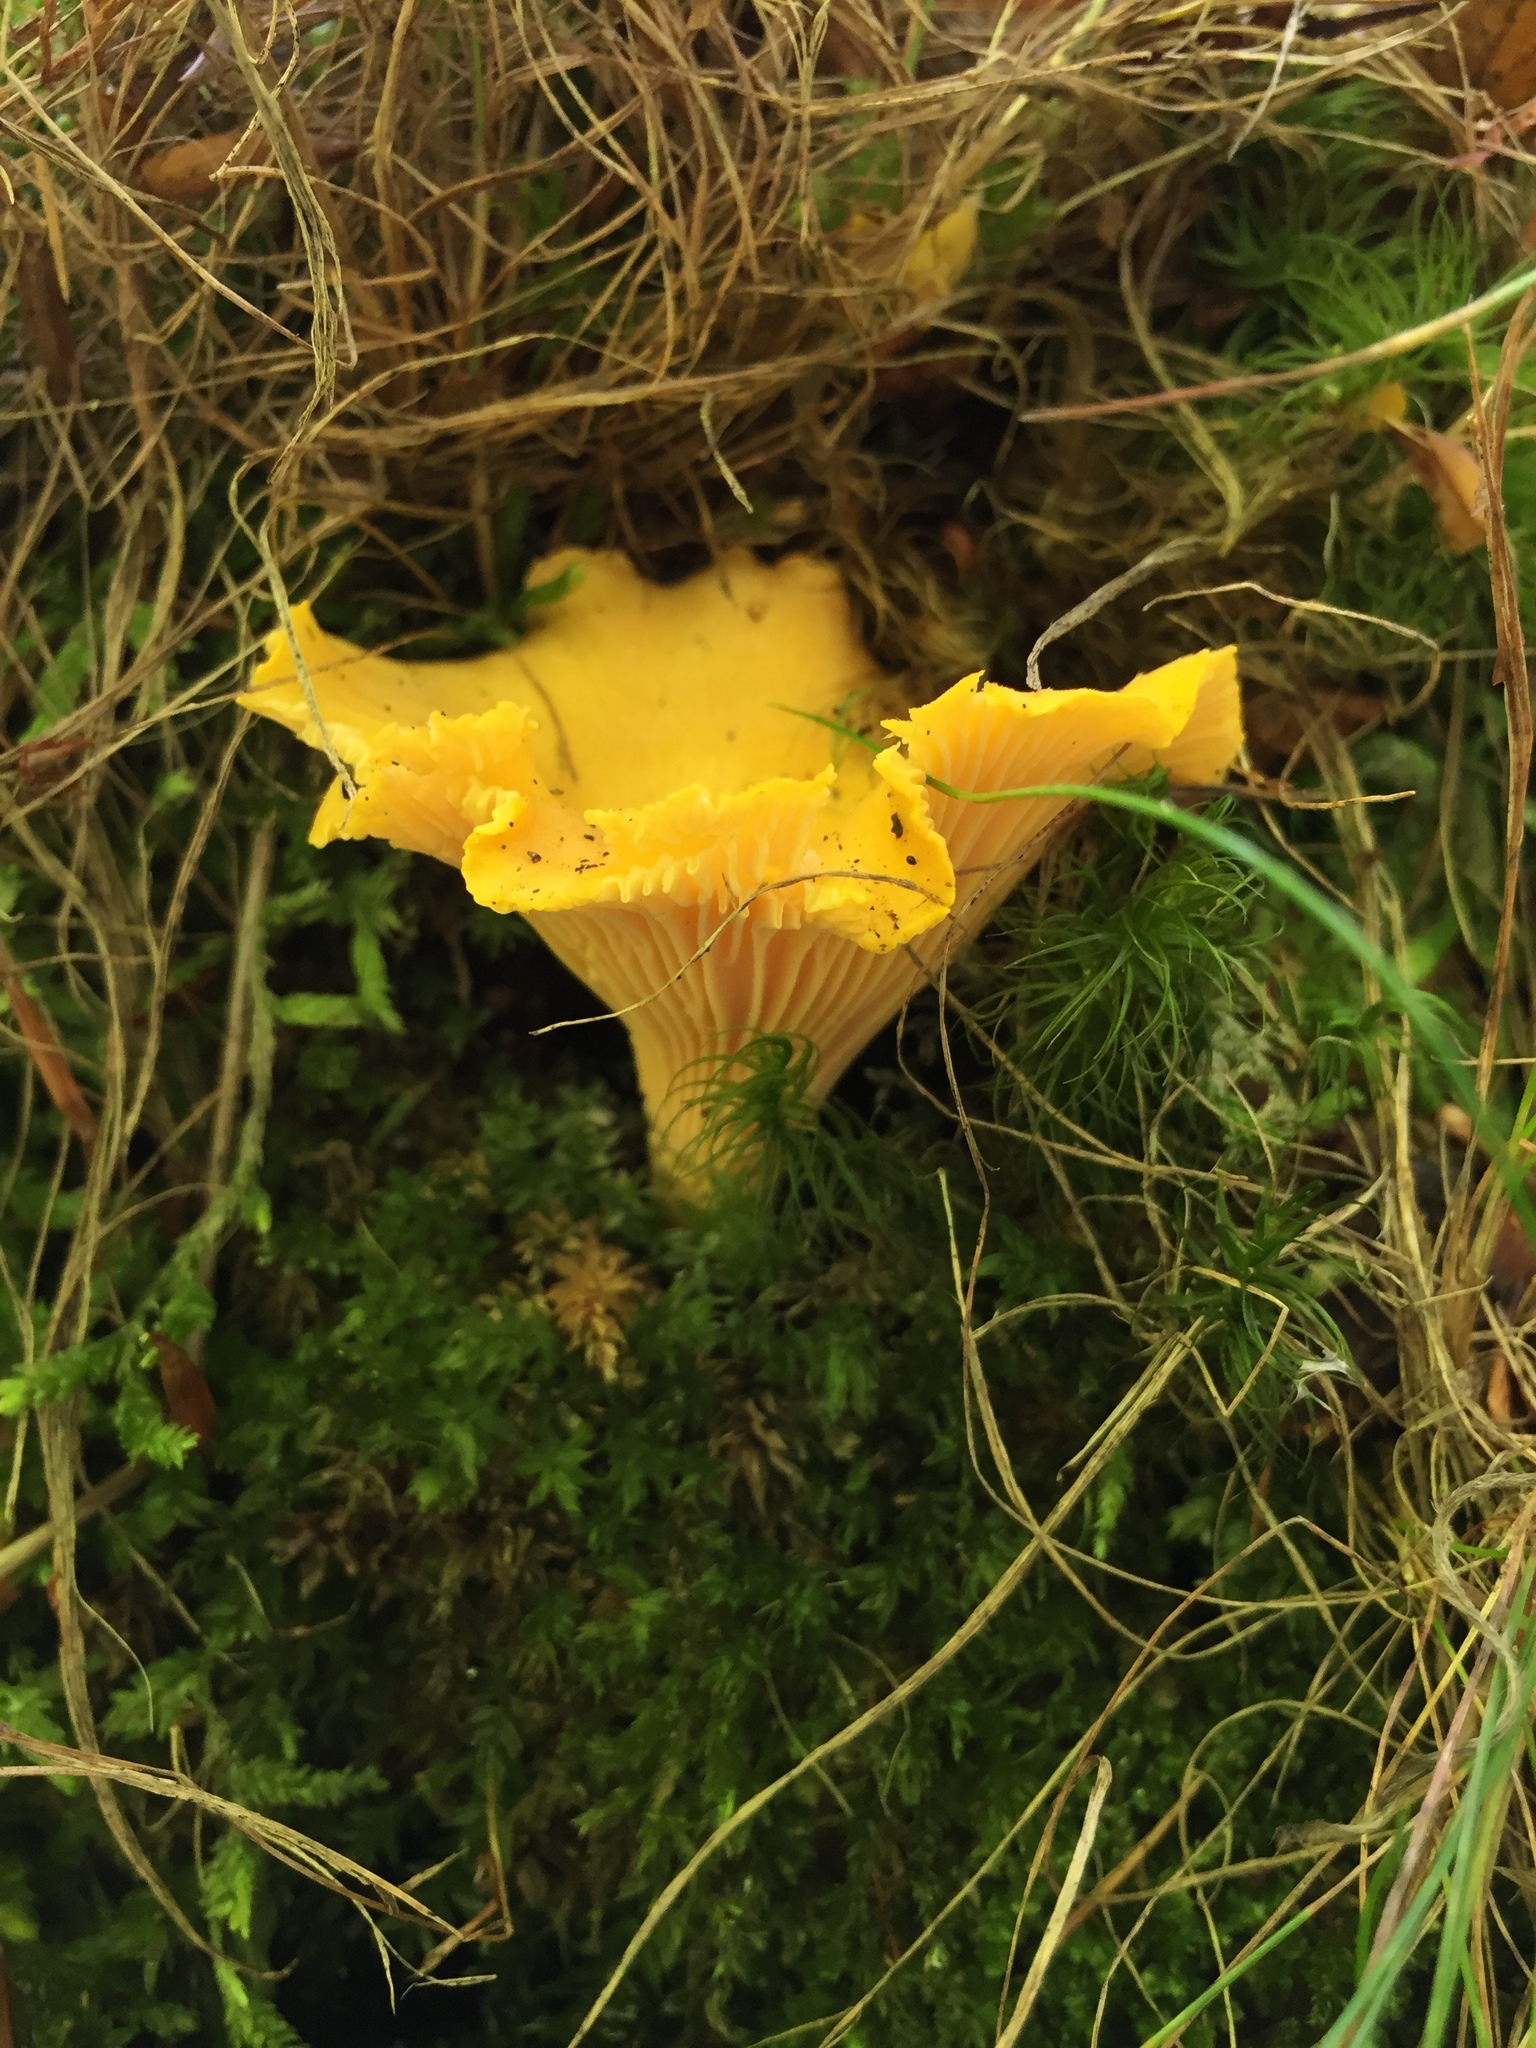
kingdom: Fungi
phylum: Basidiomycota
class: Agaricomycetes
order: Cantharellales
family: Hydnaceae
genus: Cantharellus
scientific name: Cantharellus cibarius
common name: Chanterelle
